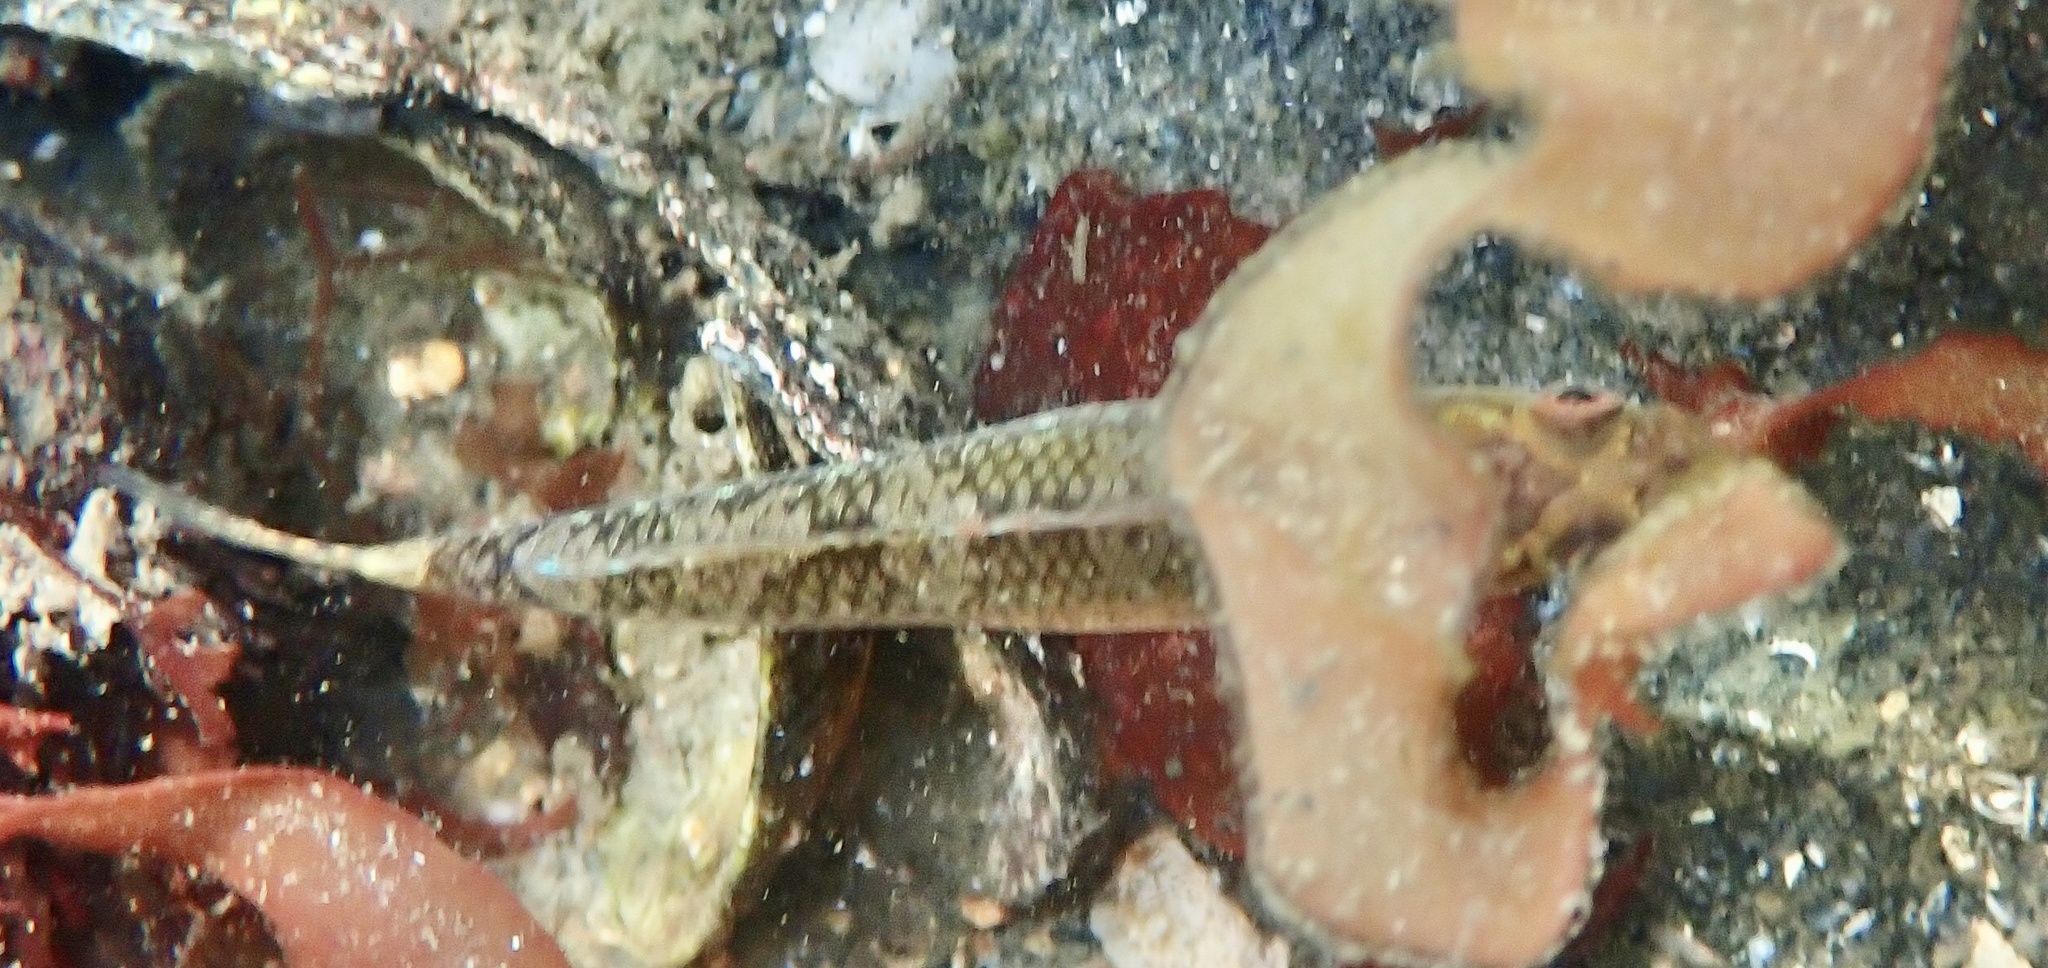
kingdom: Animalia
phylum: Chordata
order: Perciformes
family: Gobiidae
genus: Gobiusculus
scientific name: Gobiusculus flavescens
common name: Two-spotted goby
